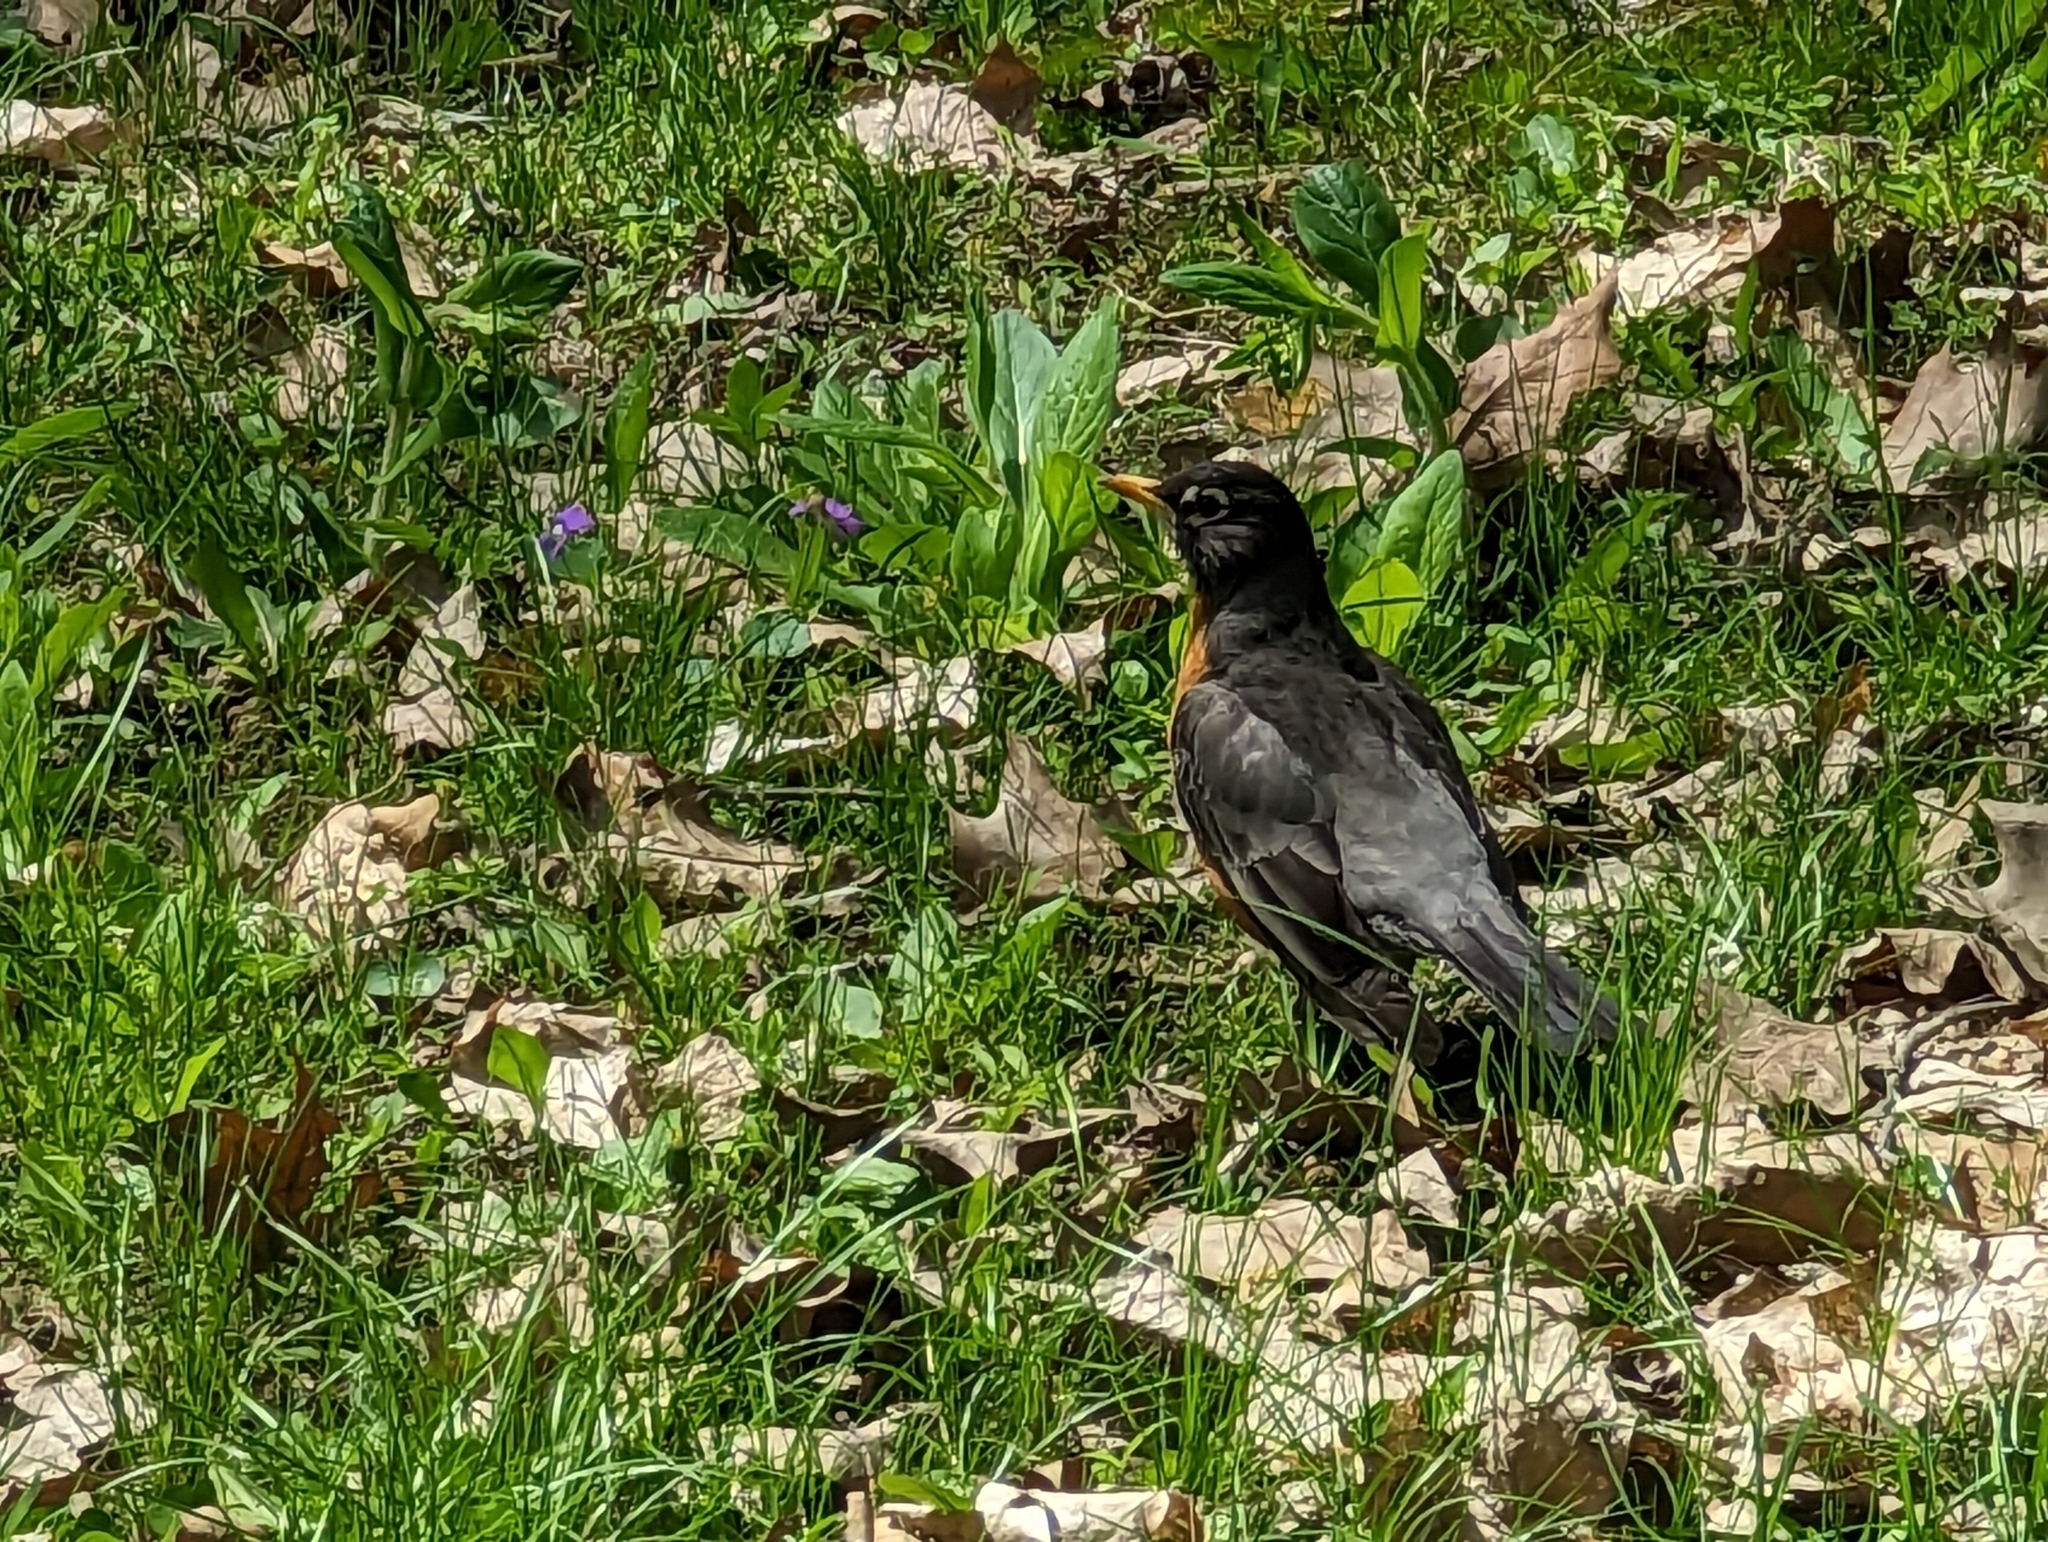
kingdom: Animalia
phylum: Chordata
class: Aves
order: Passeriformes
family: Turdidae
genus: Turdus
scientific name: Turdus migratorius
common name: American robin
